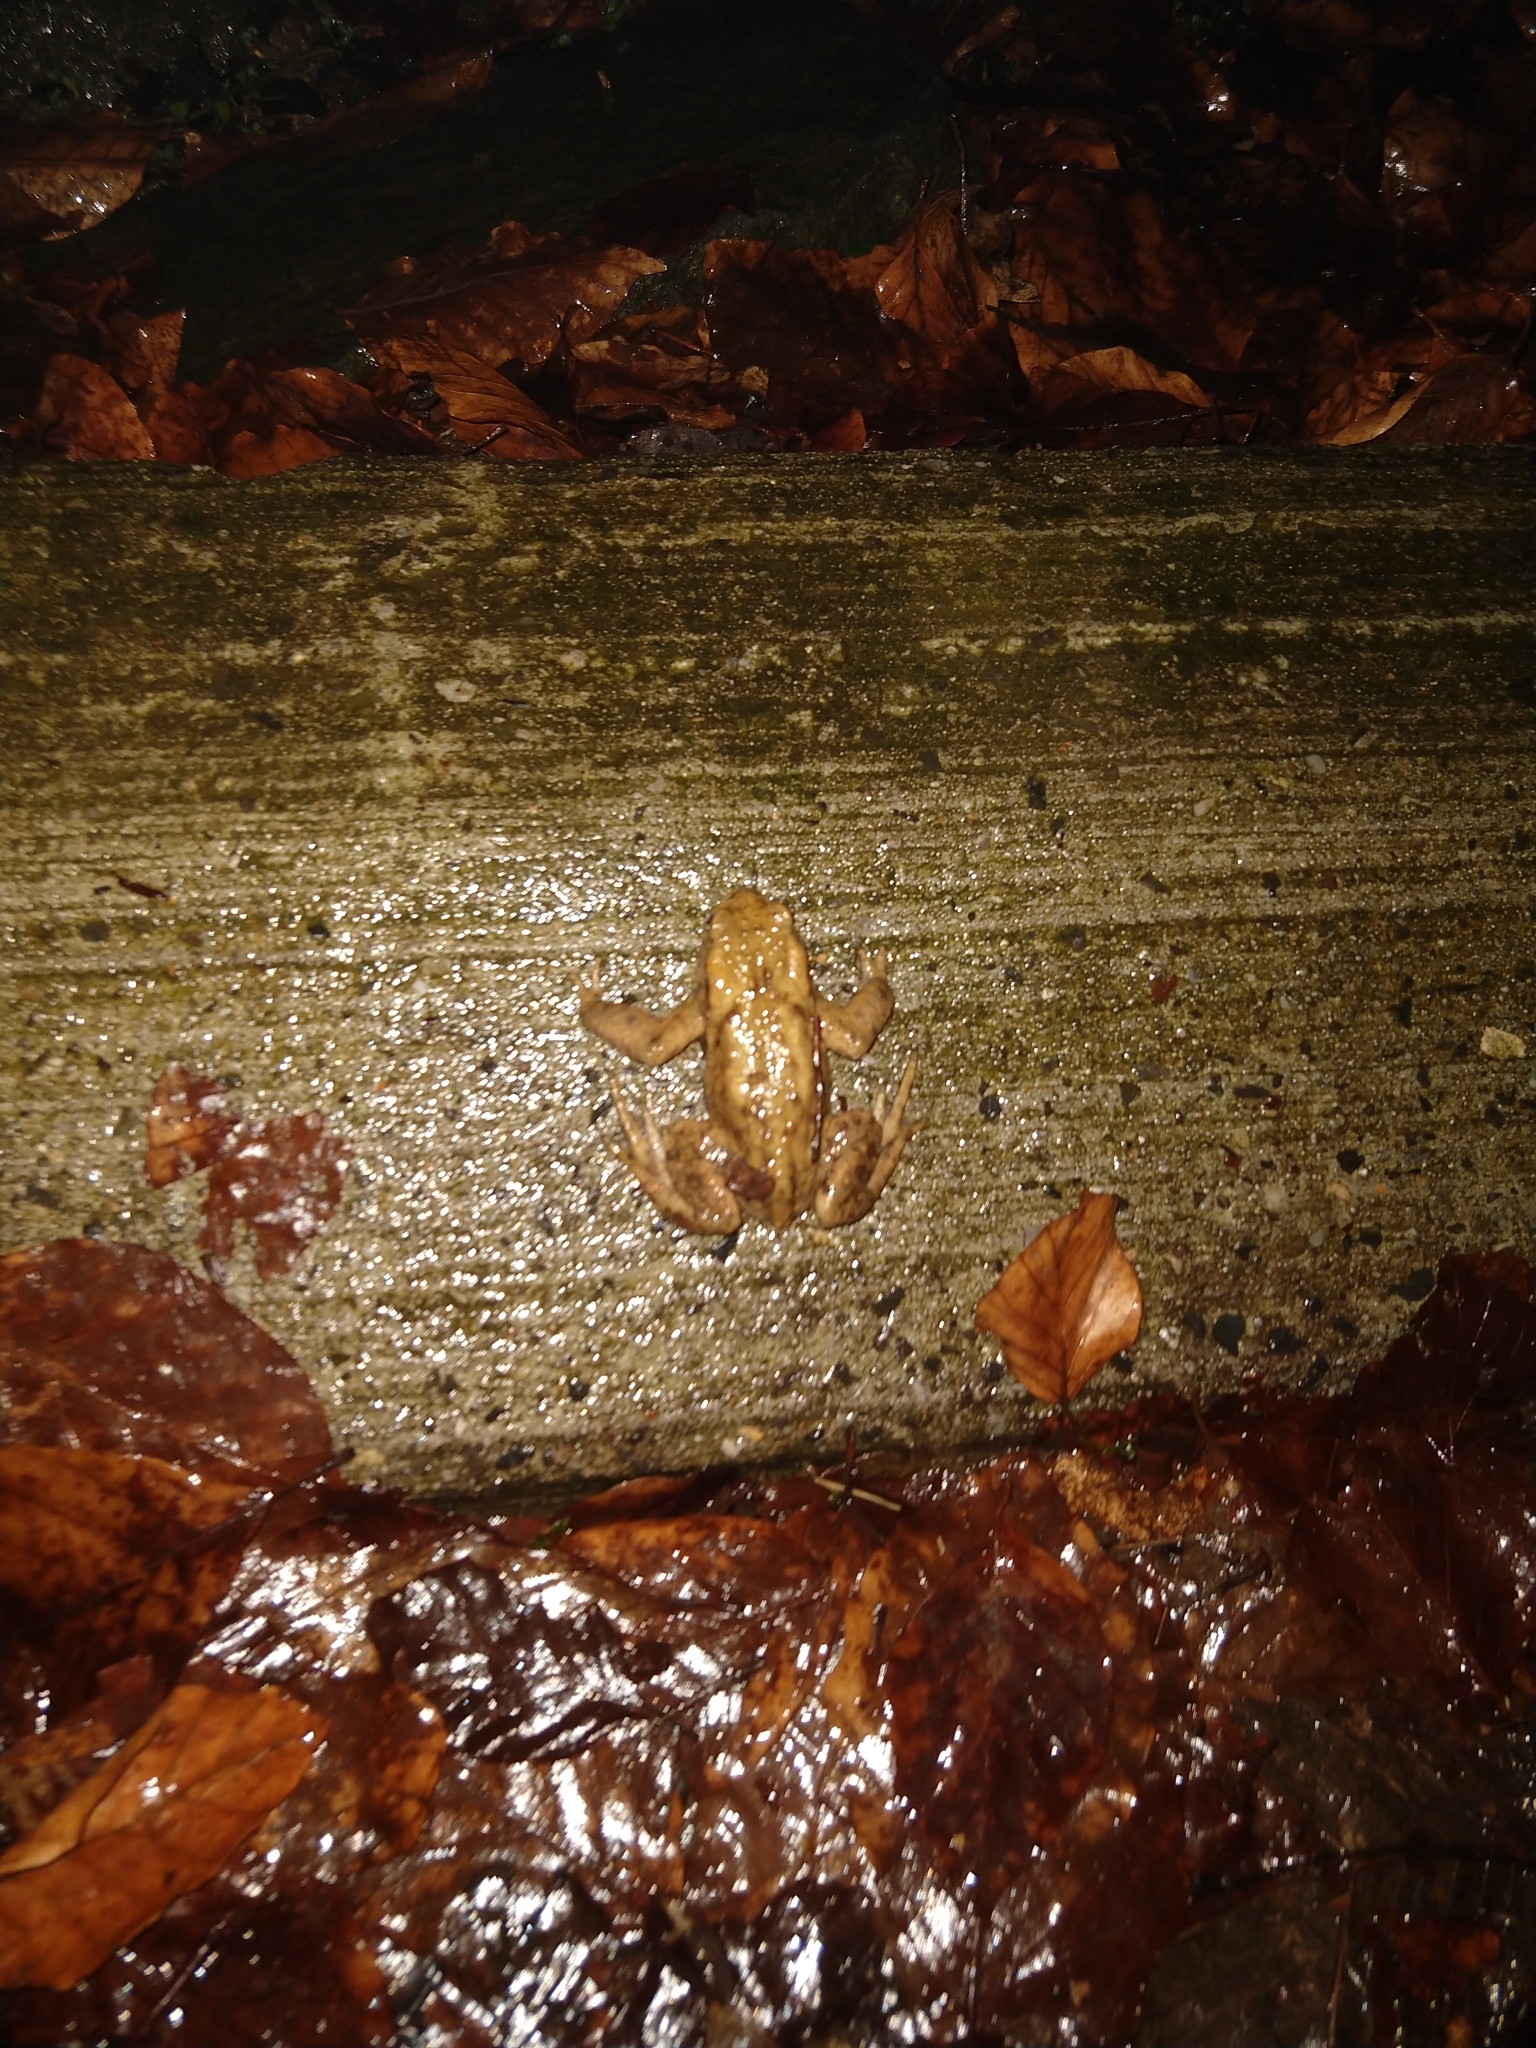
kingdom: Animalia
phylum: Chordata
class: Amphibia
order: Anura
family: Bufonidae
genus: Bufo
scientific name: Bufo bufo
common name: Common toad
